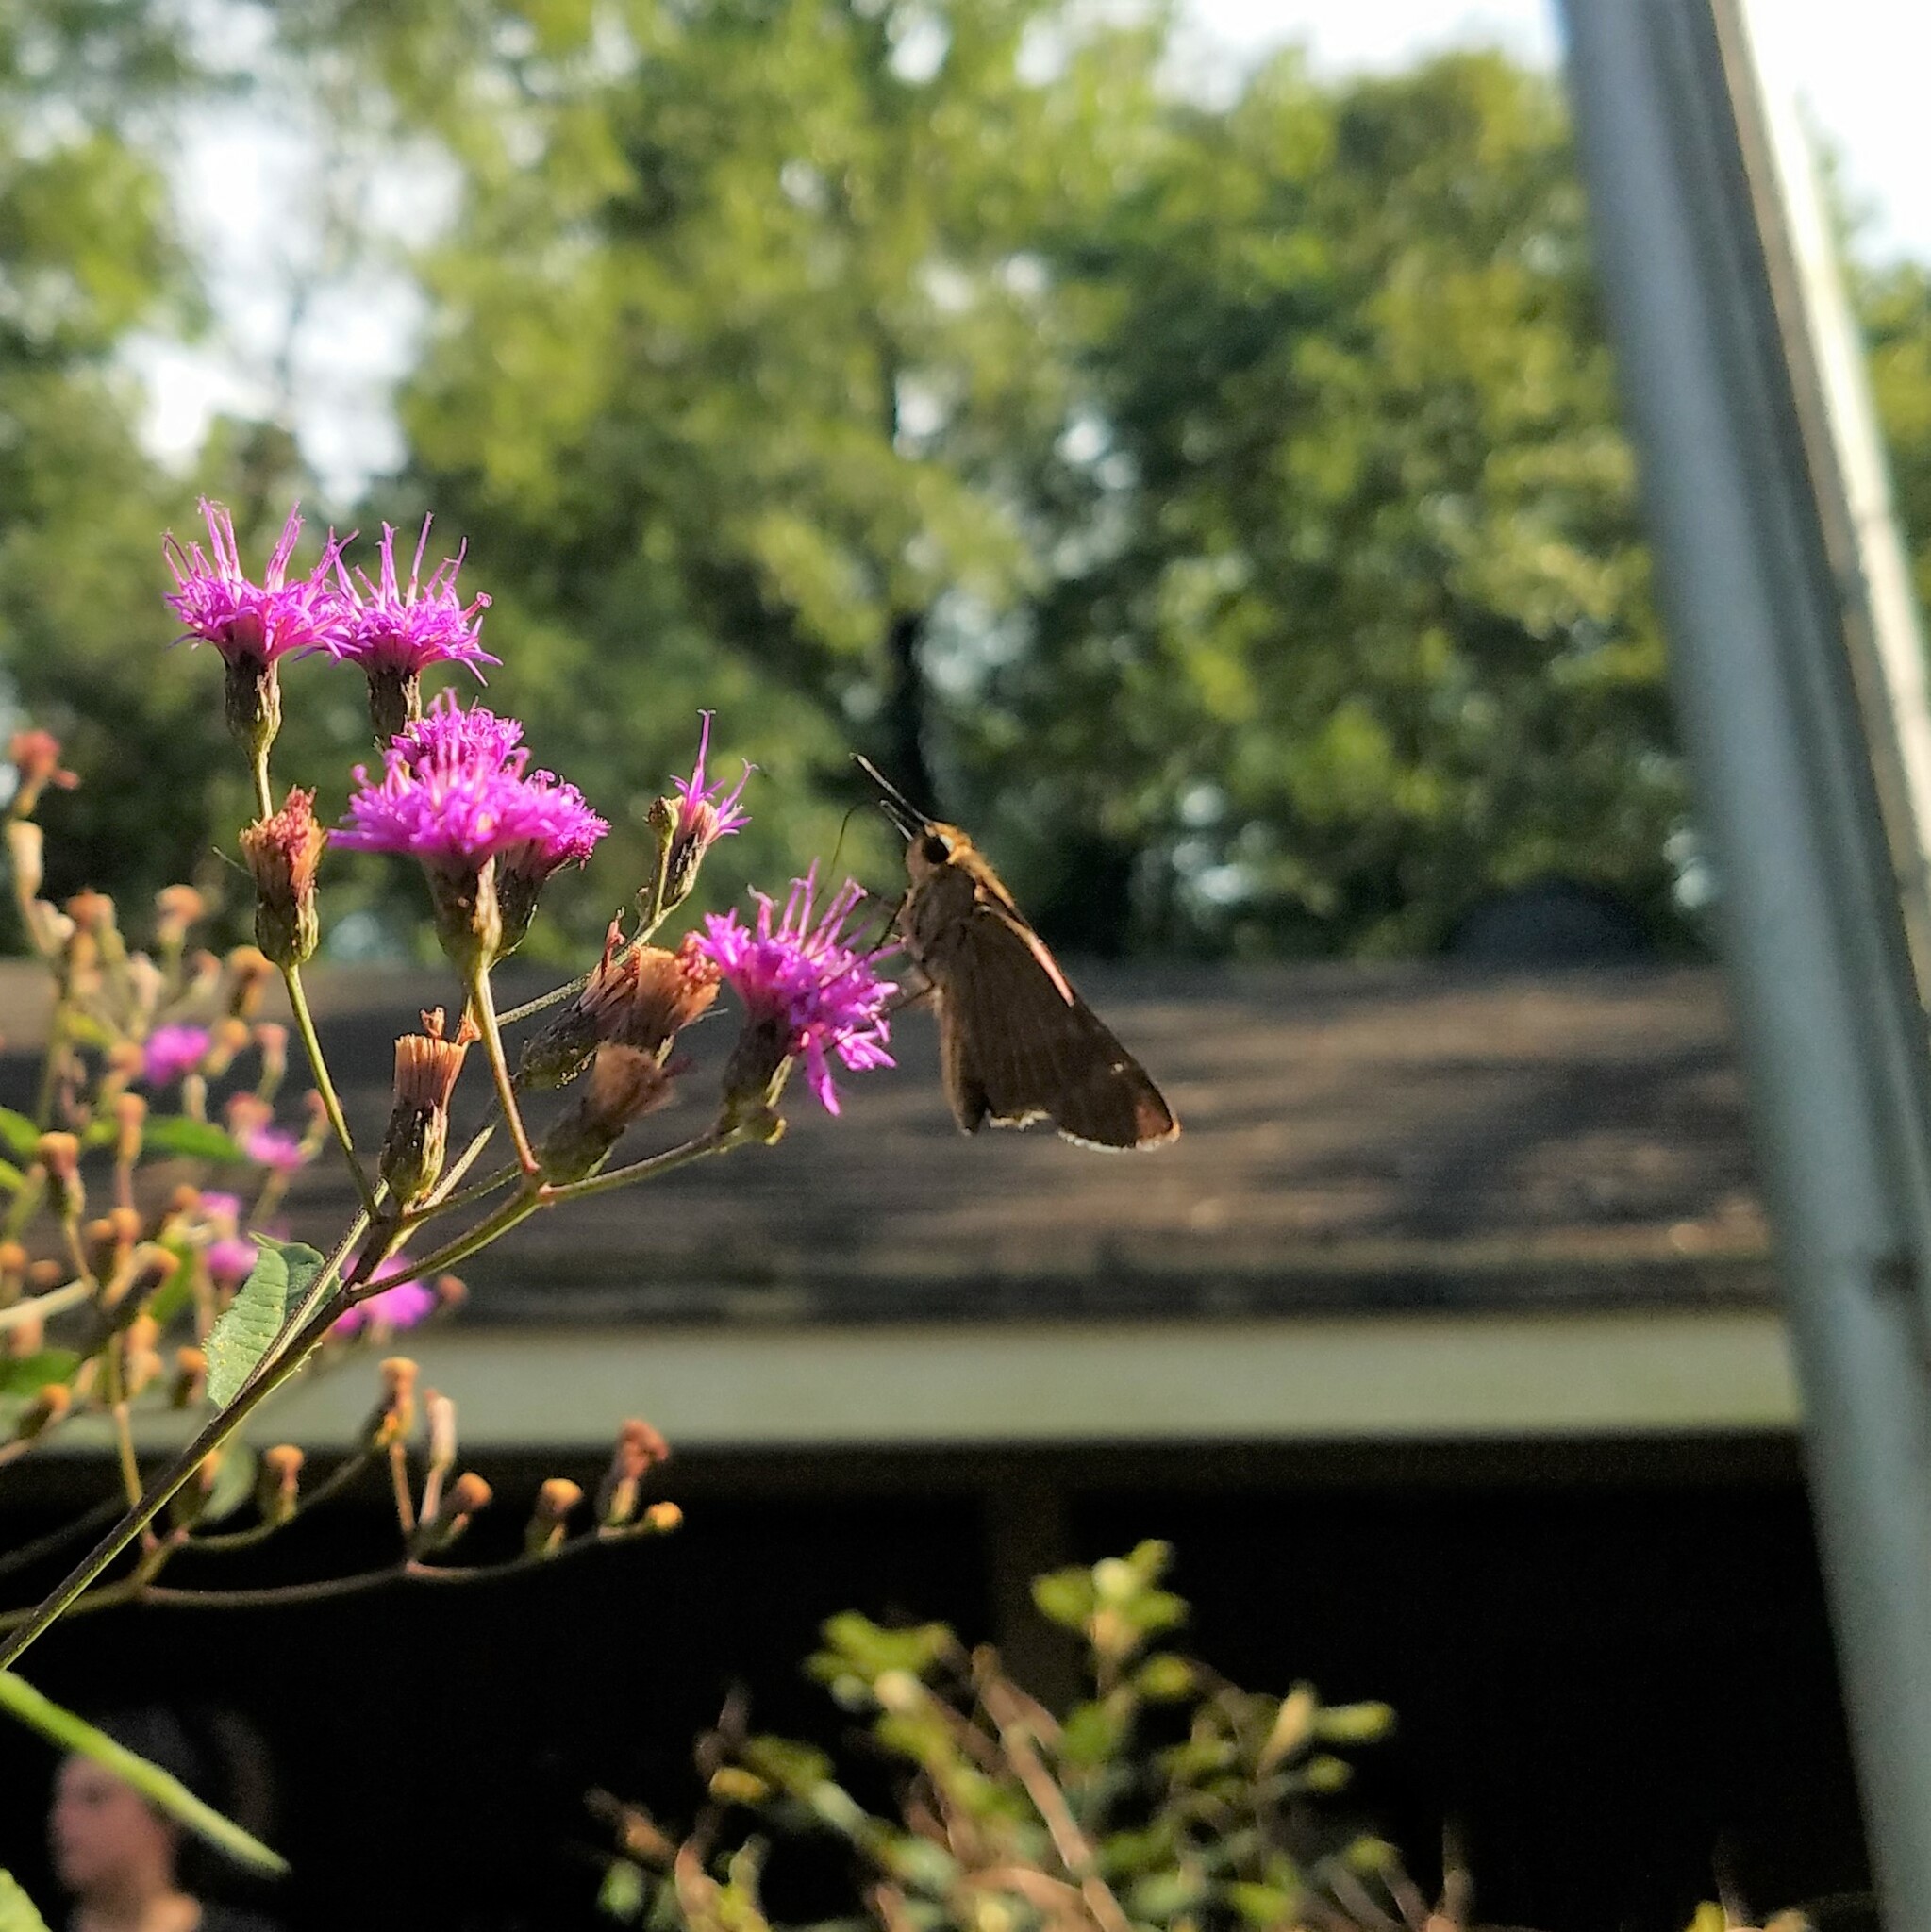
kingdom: Animalia
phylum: Arthropoda
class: Insecta
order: Lepidoptera
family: Hesperiidae
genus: Panoquina
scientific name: Panoquina ocola
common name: Ocola skipper
